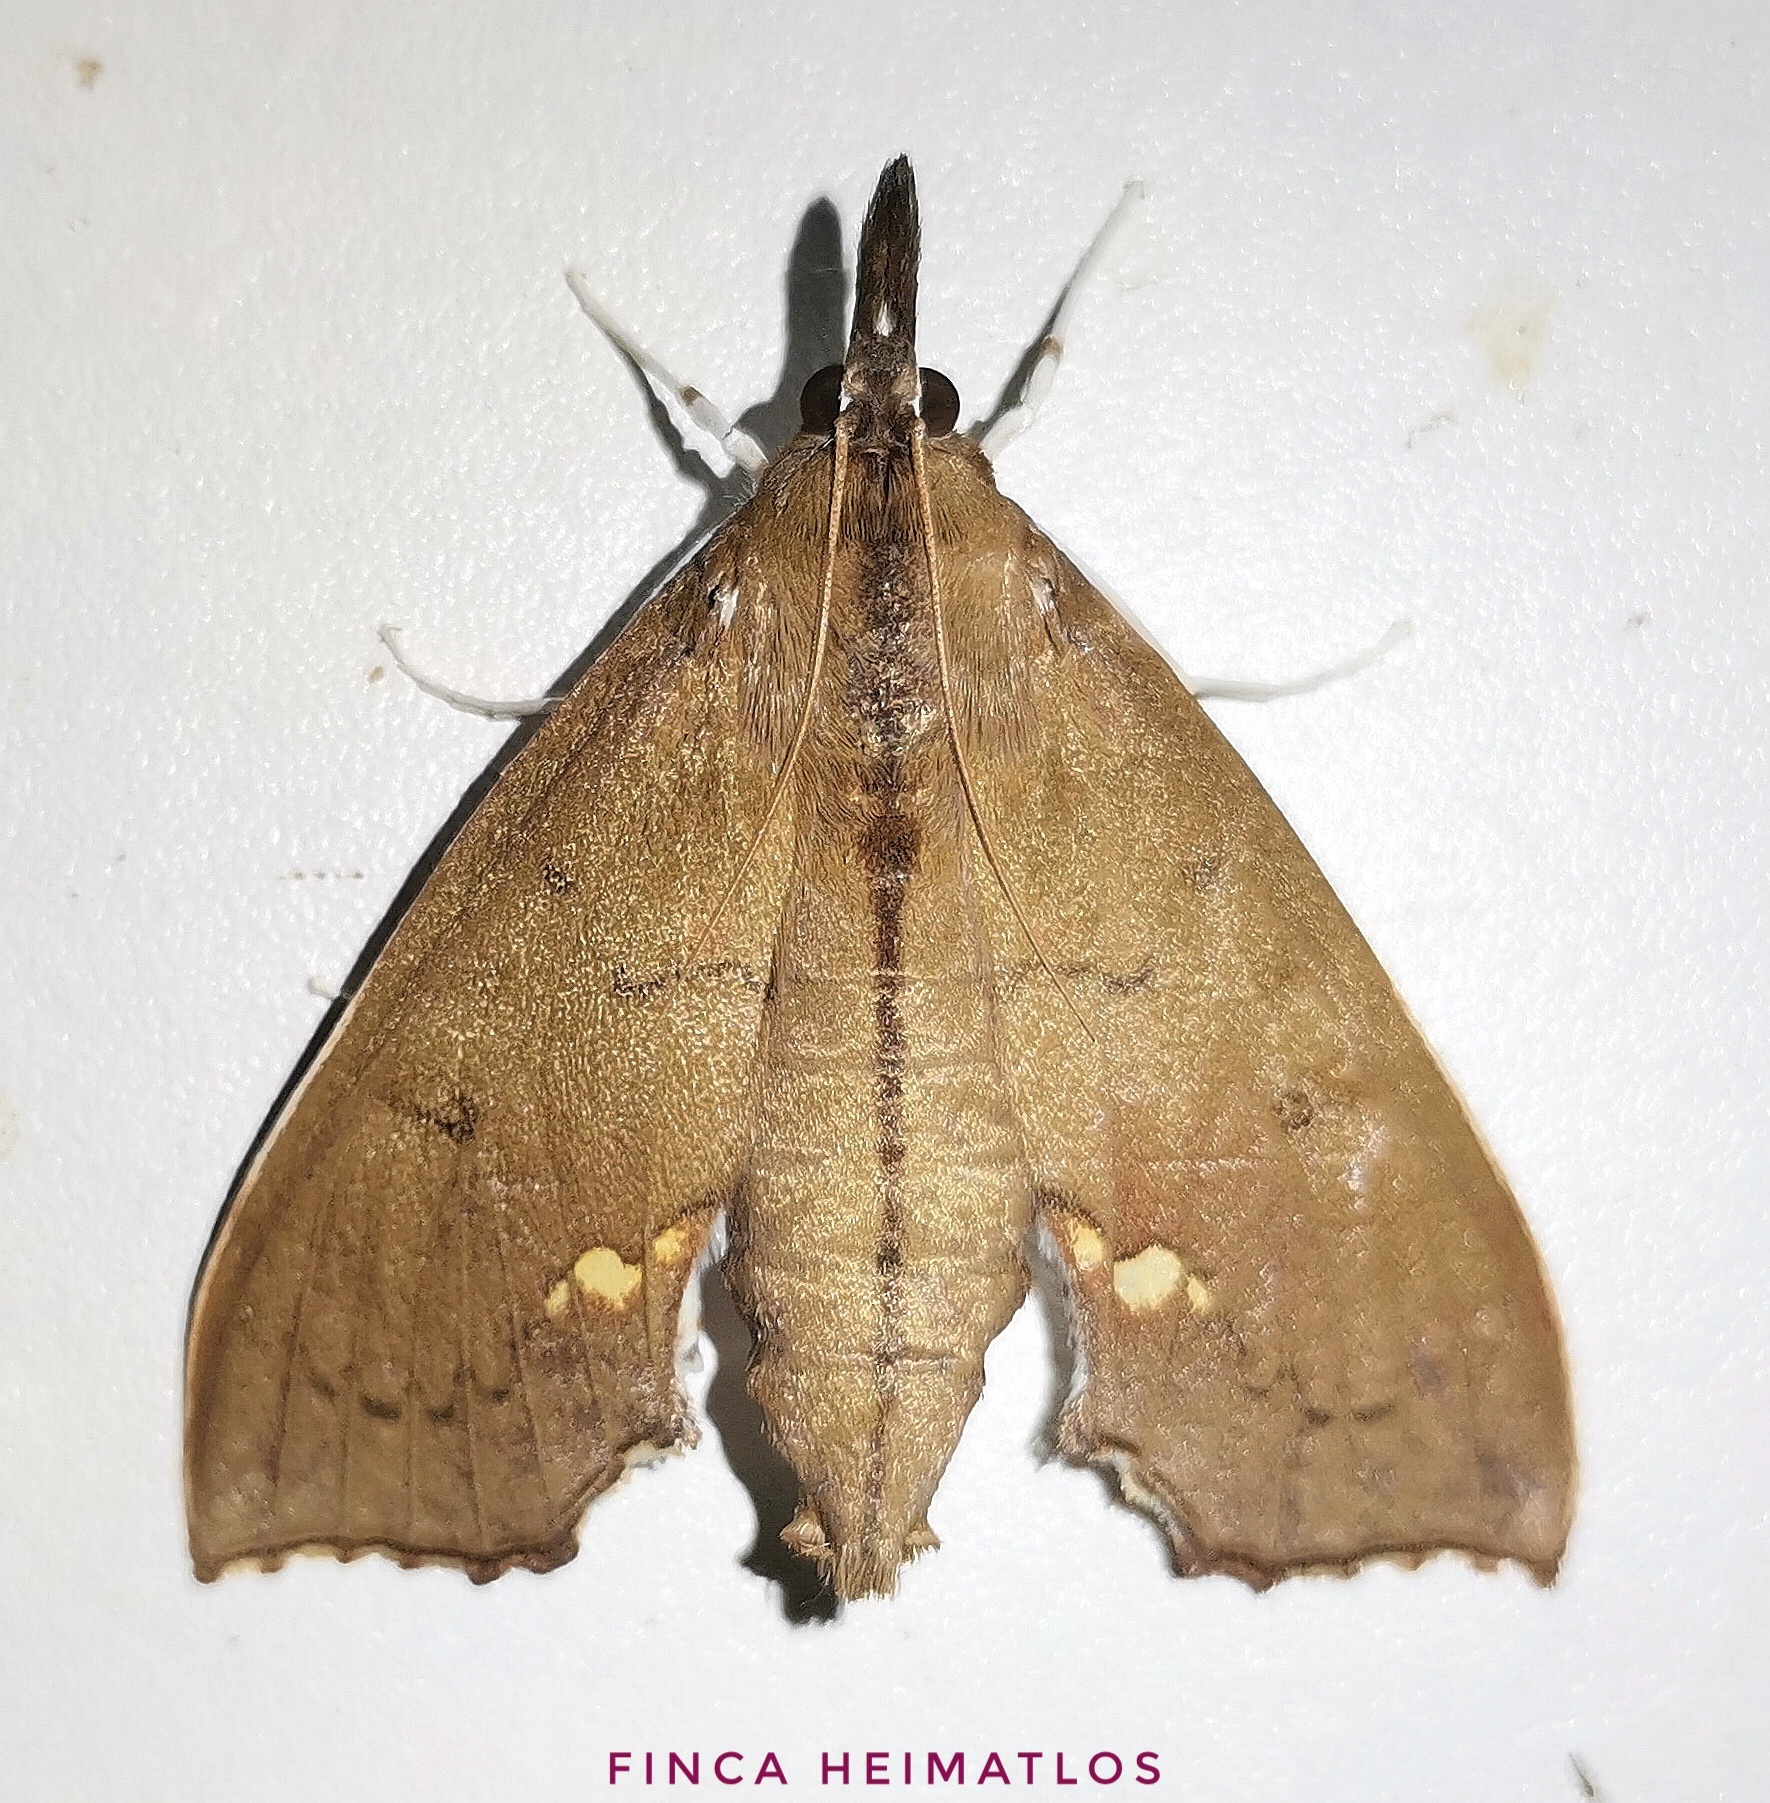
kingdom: Animalia
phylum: Arthropoda
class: Insecta
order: Lepidoptera
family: Crambidae
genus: Liopasia
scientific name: Liopasia andrealis
